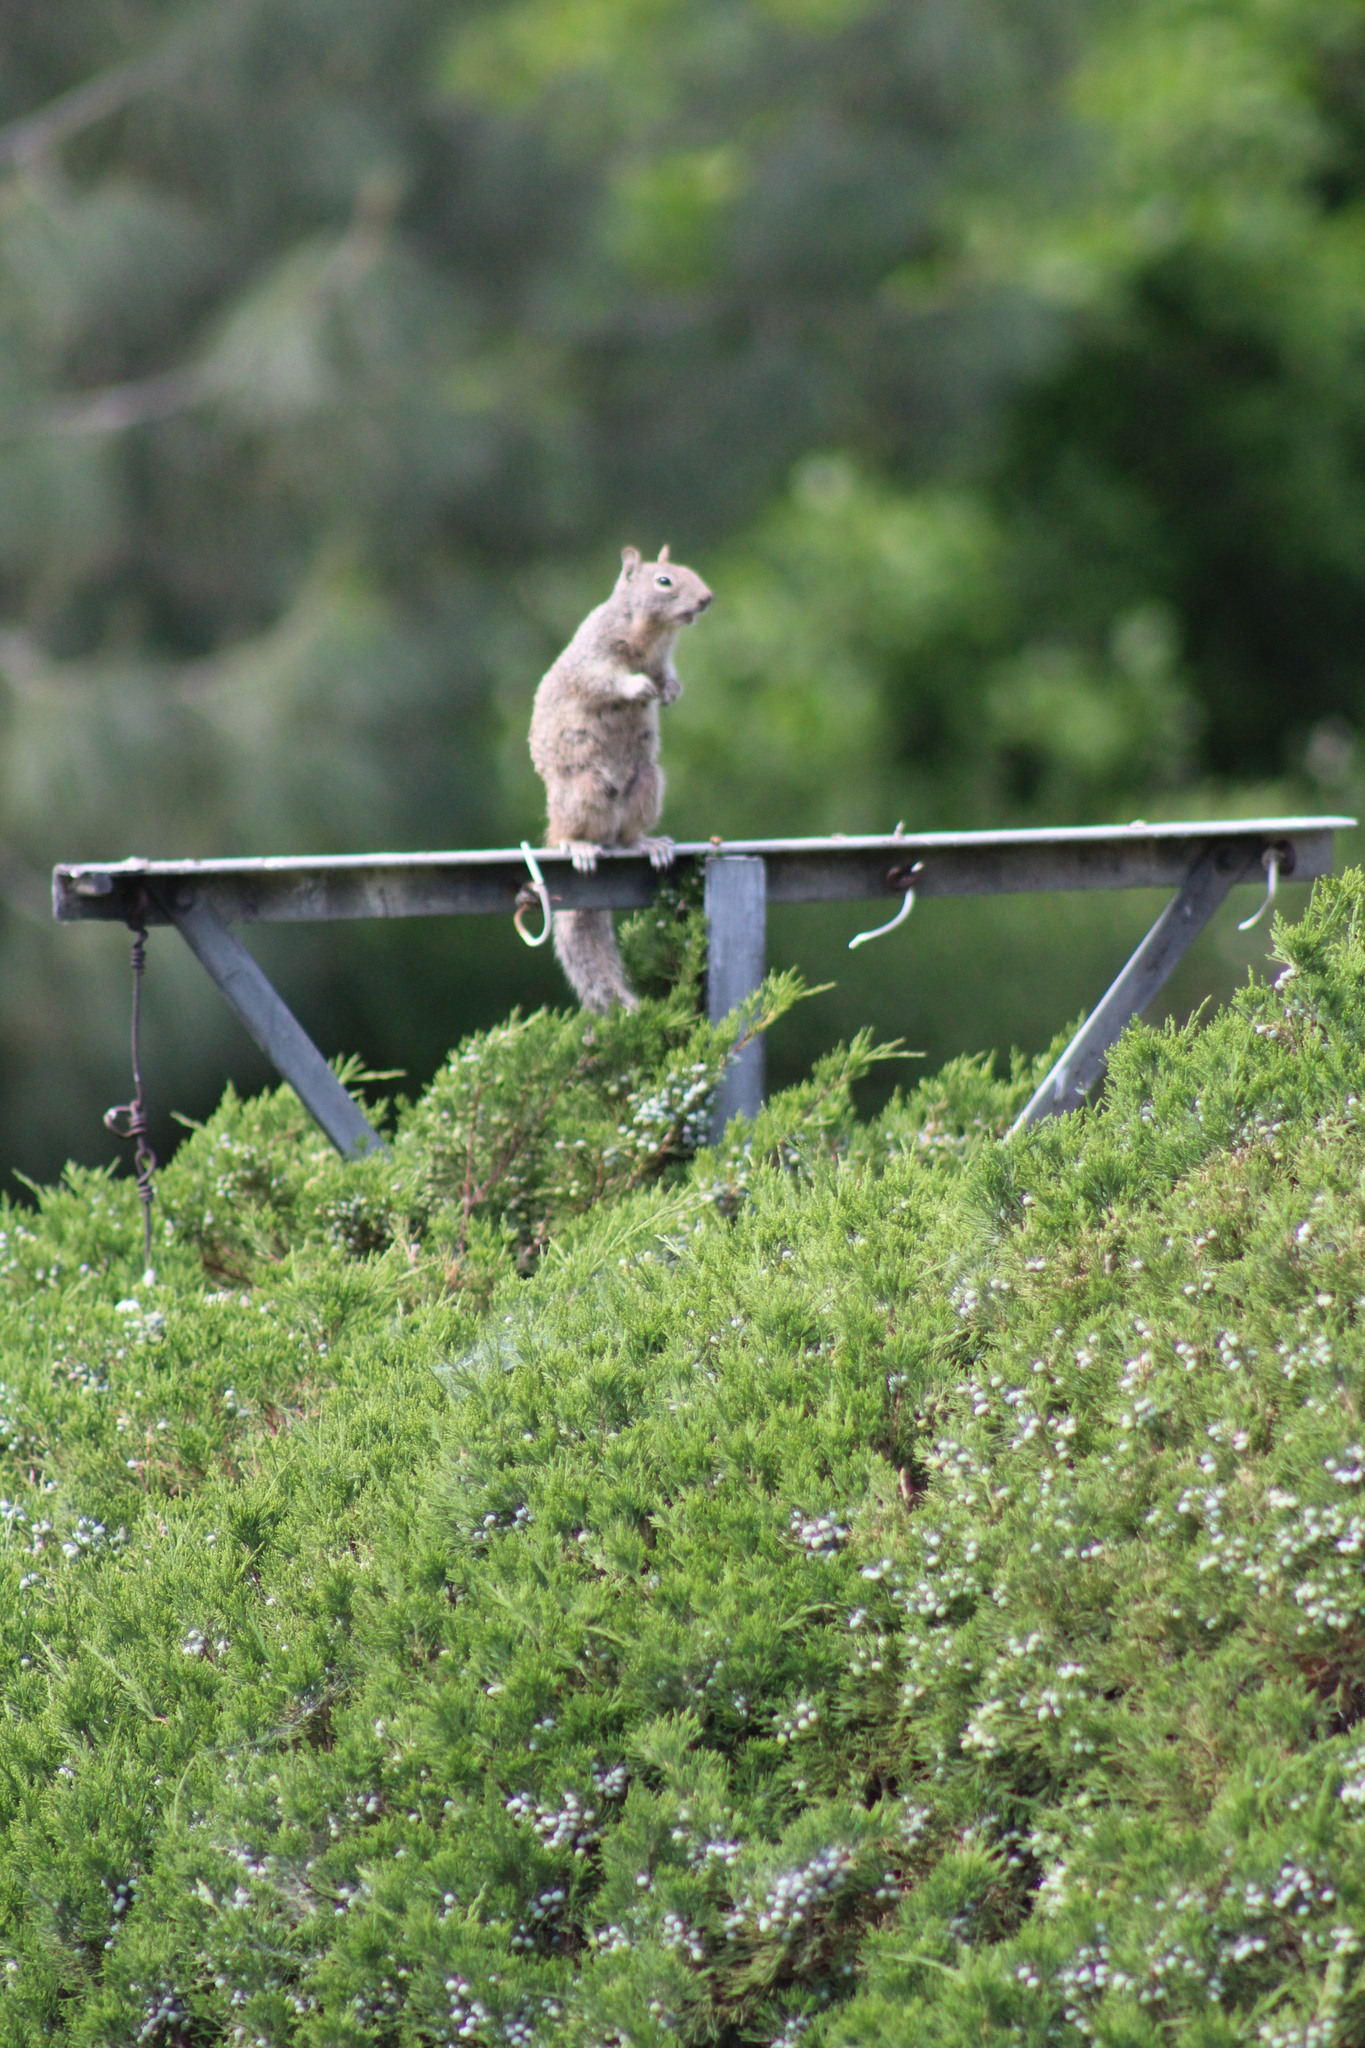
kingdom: Animalia
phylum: Chordata
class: Mammalia
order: Rodentia
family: Sciuridae
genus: Otospermophilus
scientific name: Otospermophilus beecheyi
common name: California ground squirrel
